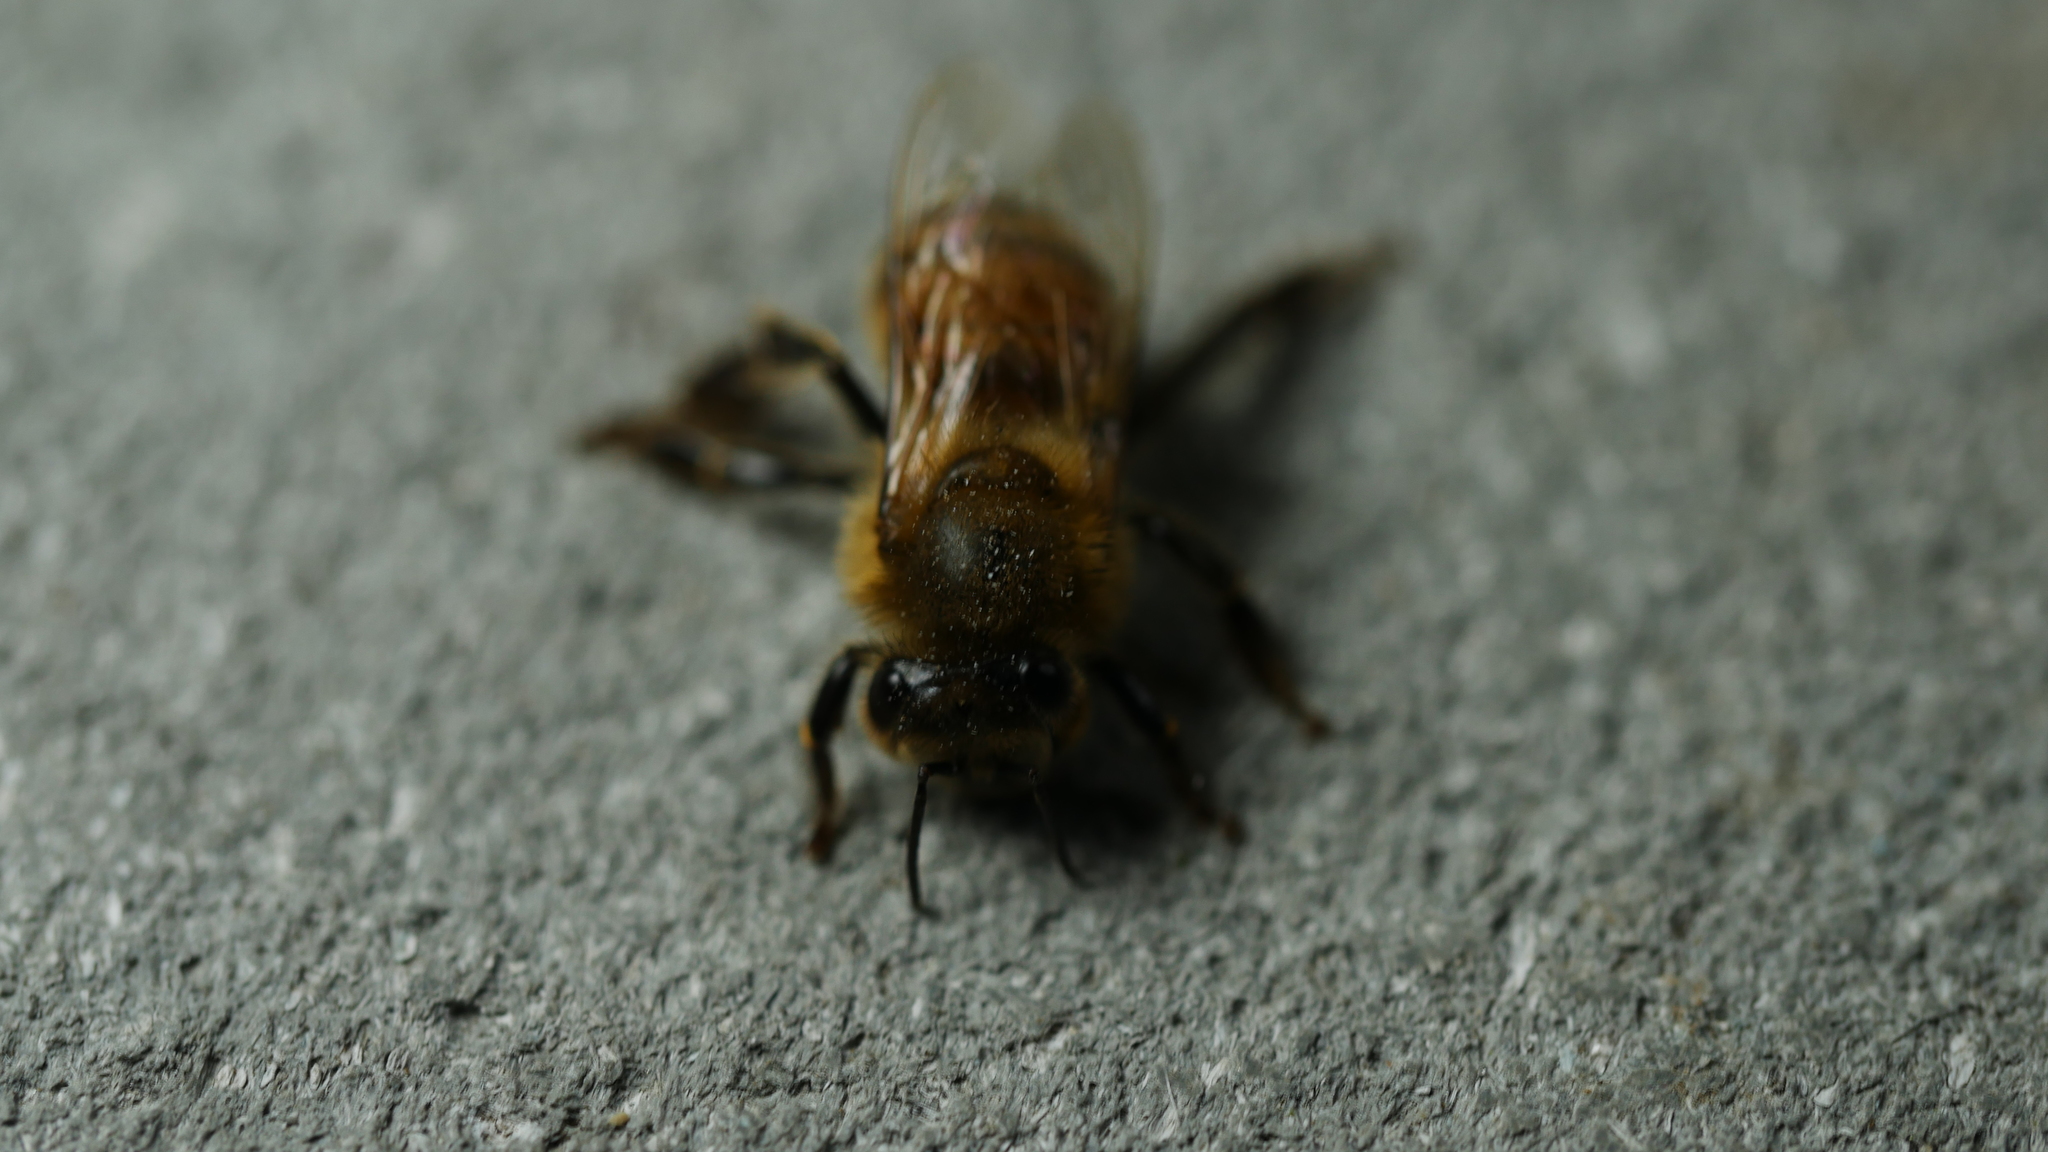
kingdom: Animalia
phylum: Arthropoda
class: Insecta
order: Hymenoptera
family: Apidae
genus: Apis
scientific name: Apis mellifera
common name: Honey bee
